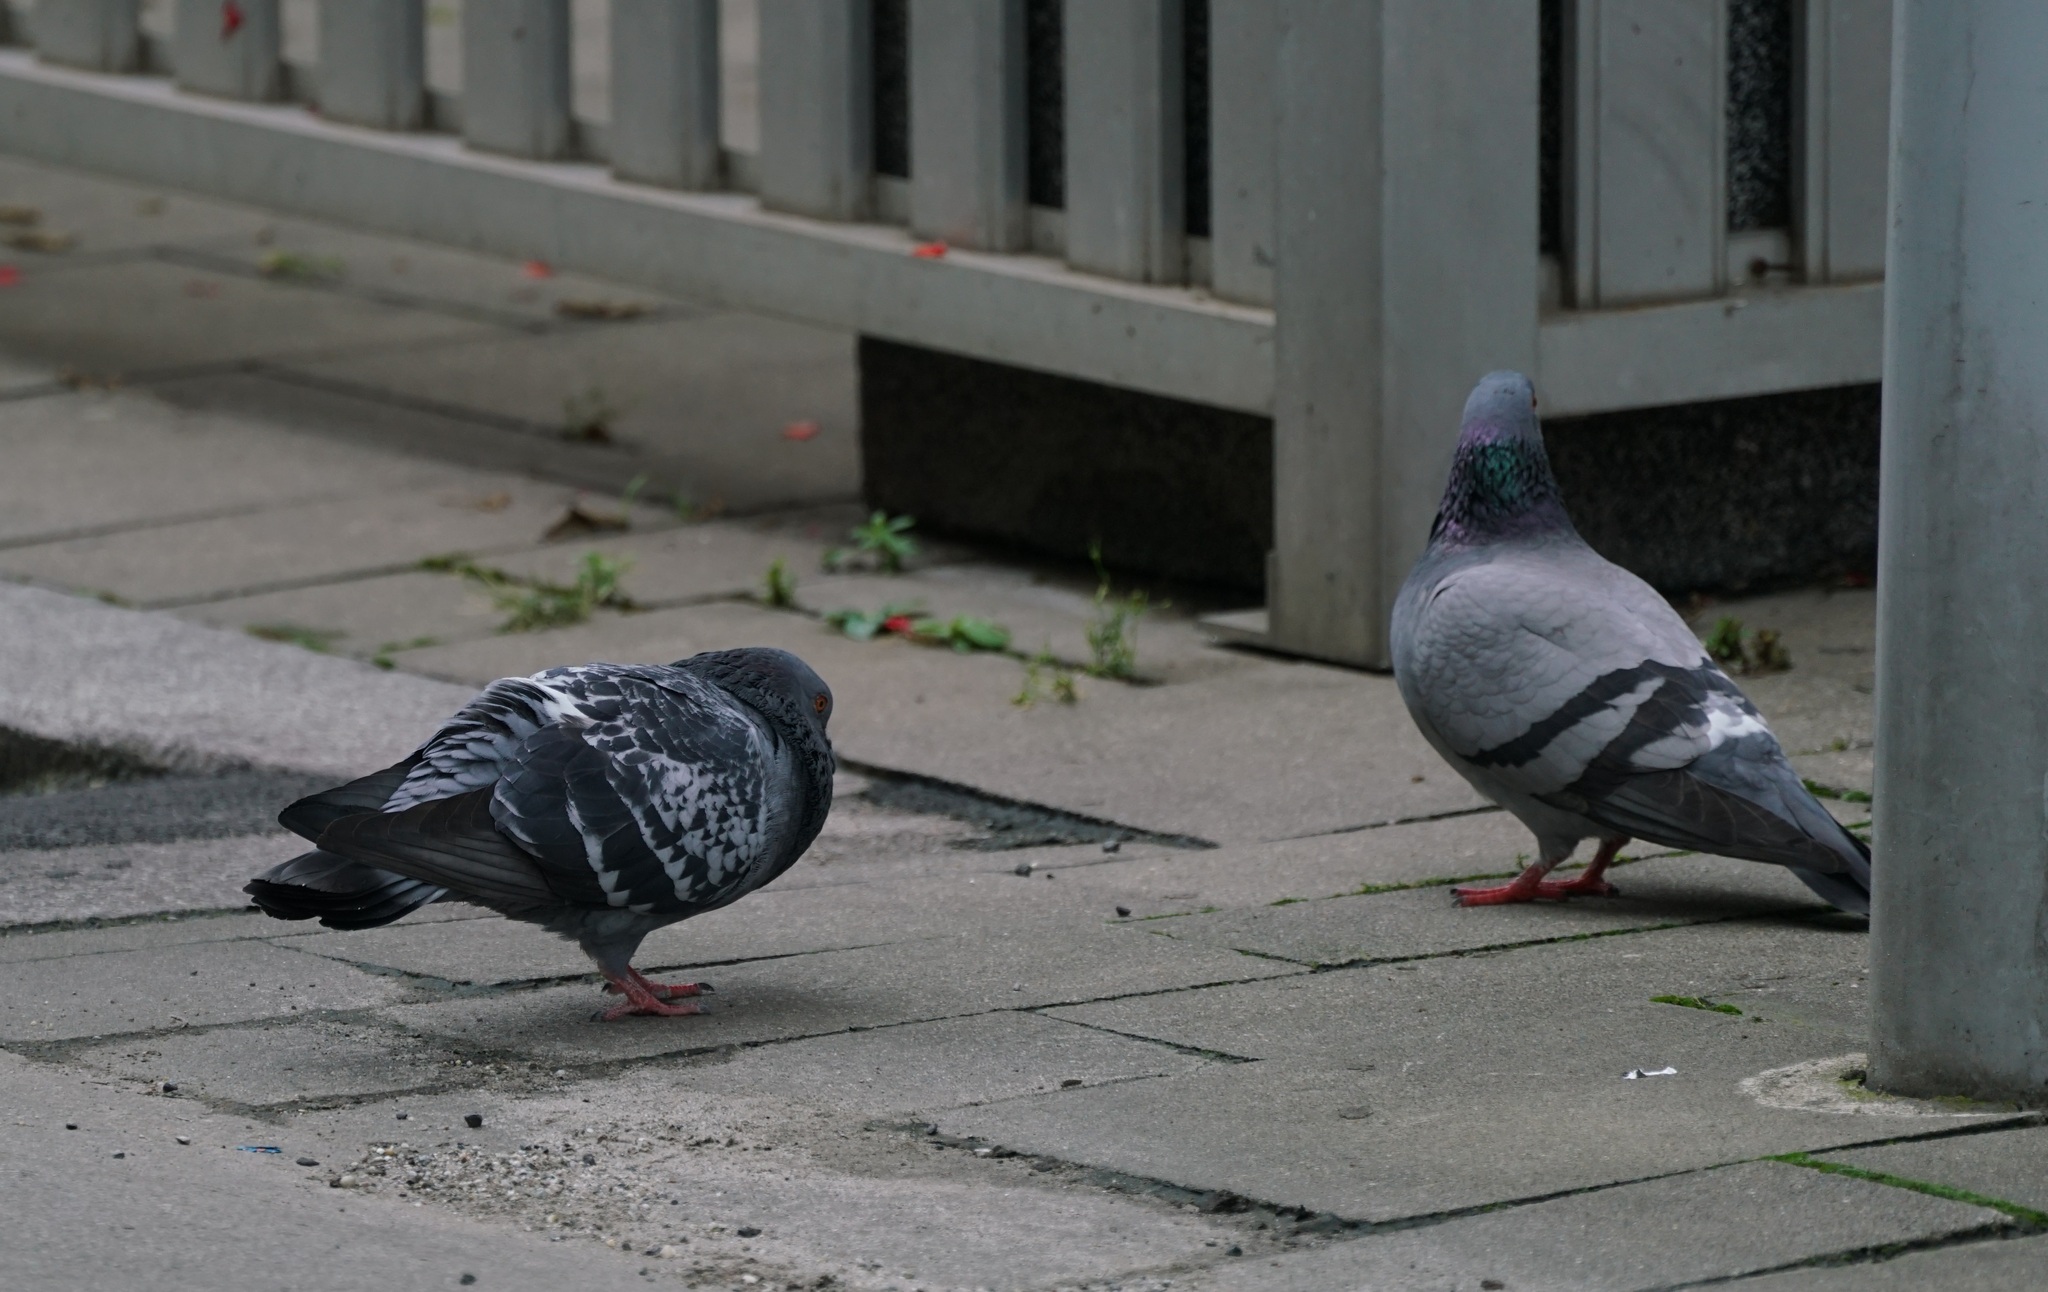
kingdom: Animalia
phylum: Chordata
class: Aves
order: Columbiformes
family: Columbidae
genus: Columba
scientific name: Columba livia
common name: Rock pigeon
